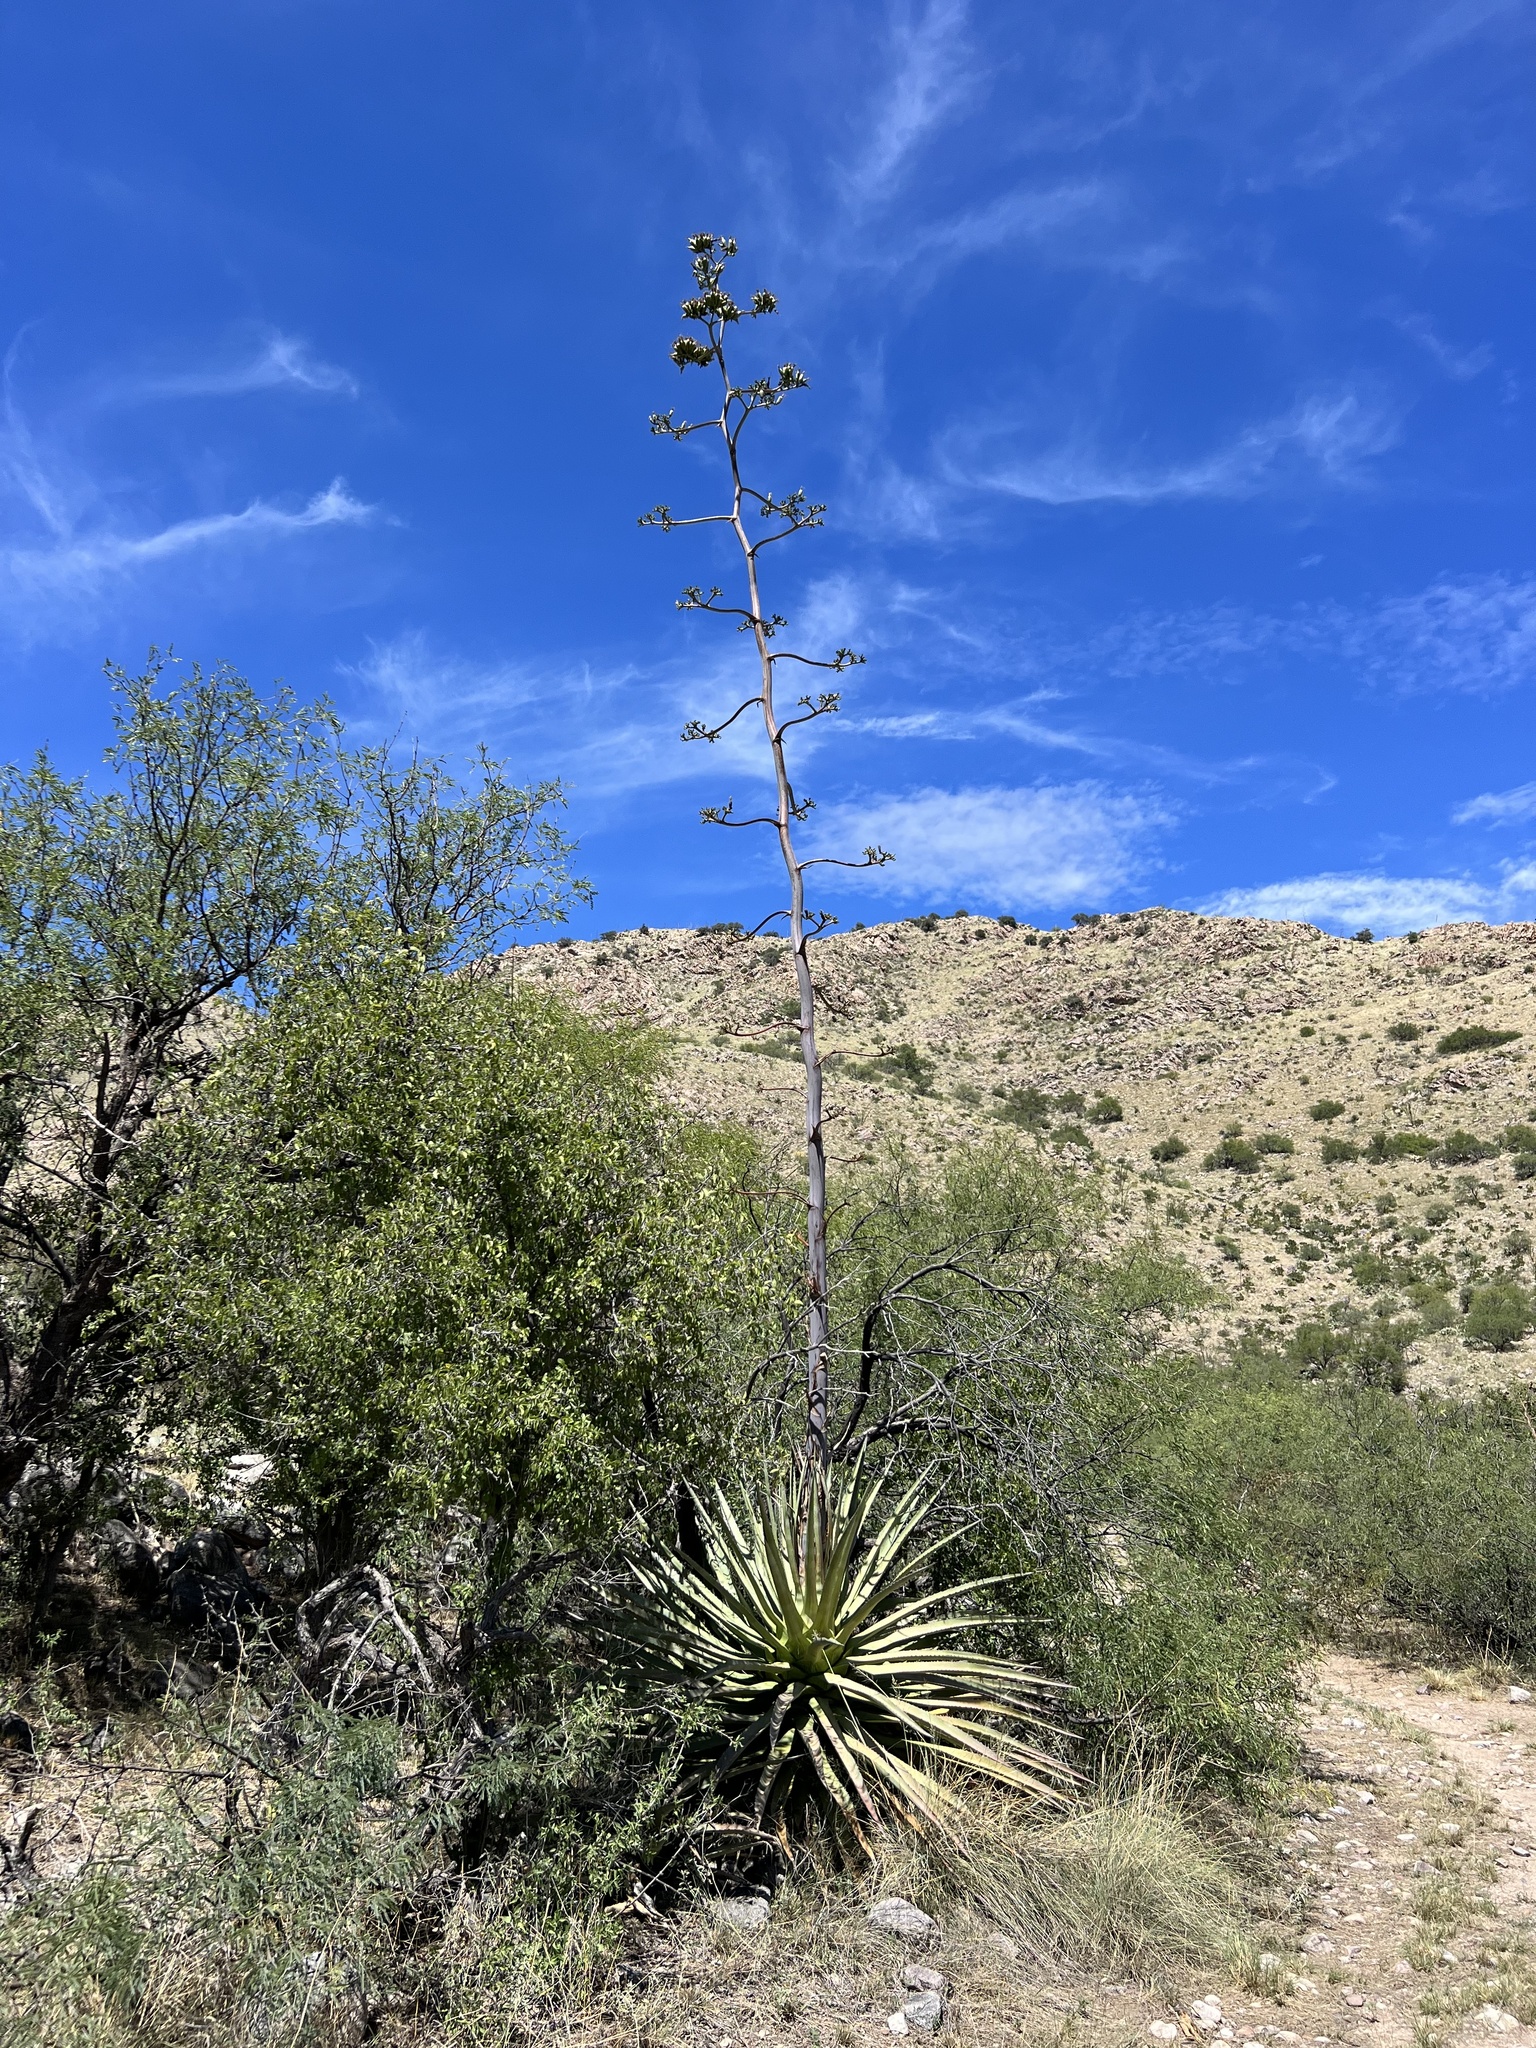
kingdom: Plantae
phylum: Tracheophyta
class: Liliopsida
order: Asparagales
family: Asparagaceae
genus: Agave
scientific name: Agave palmeri
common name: Palmer agave
